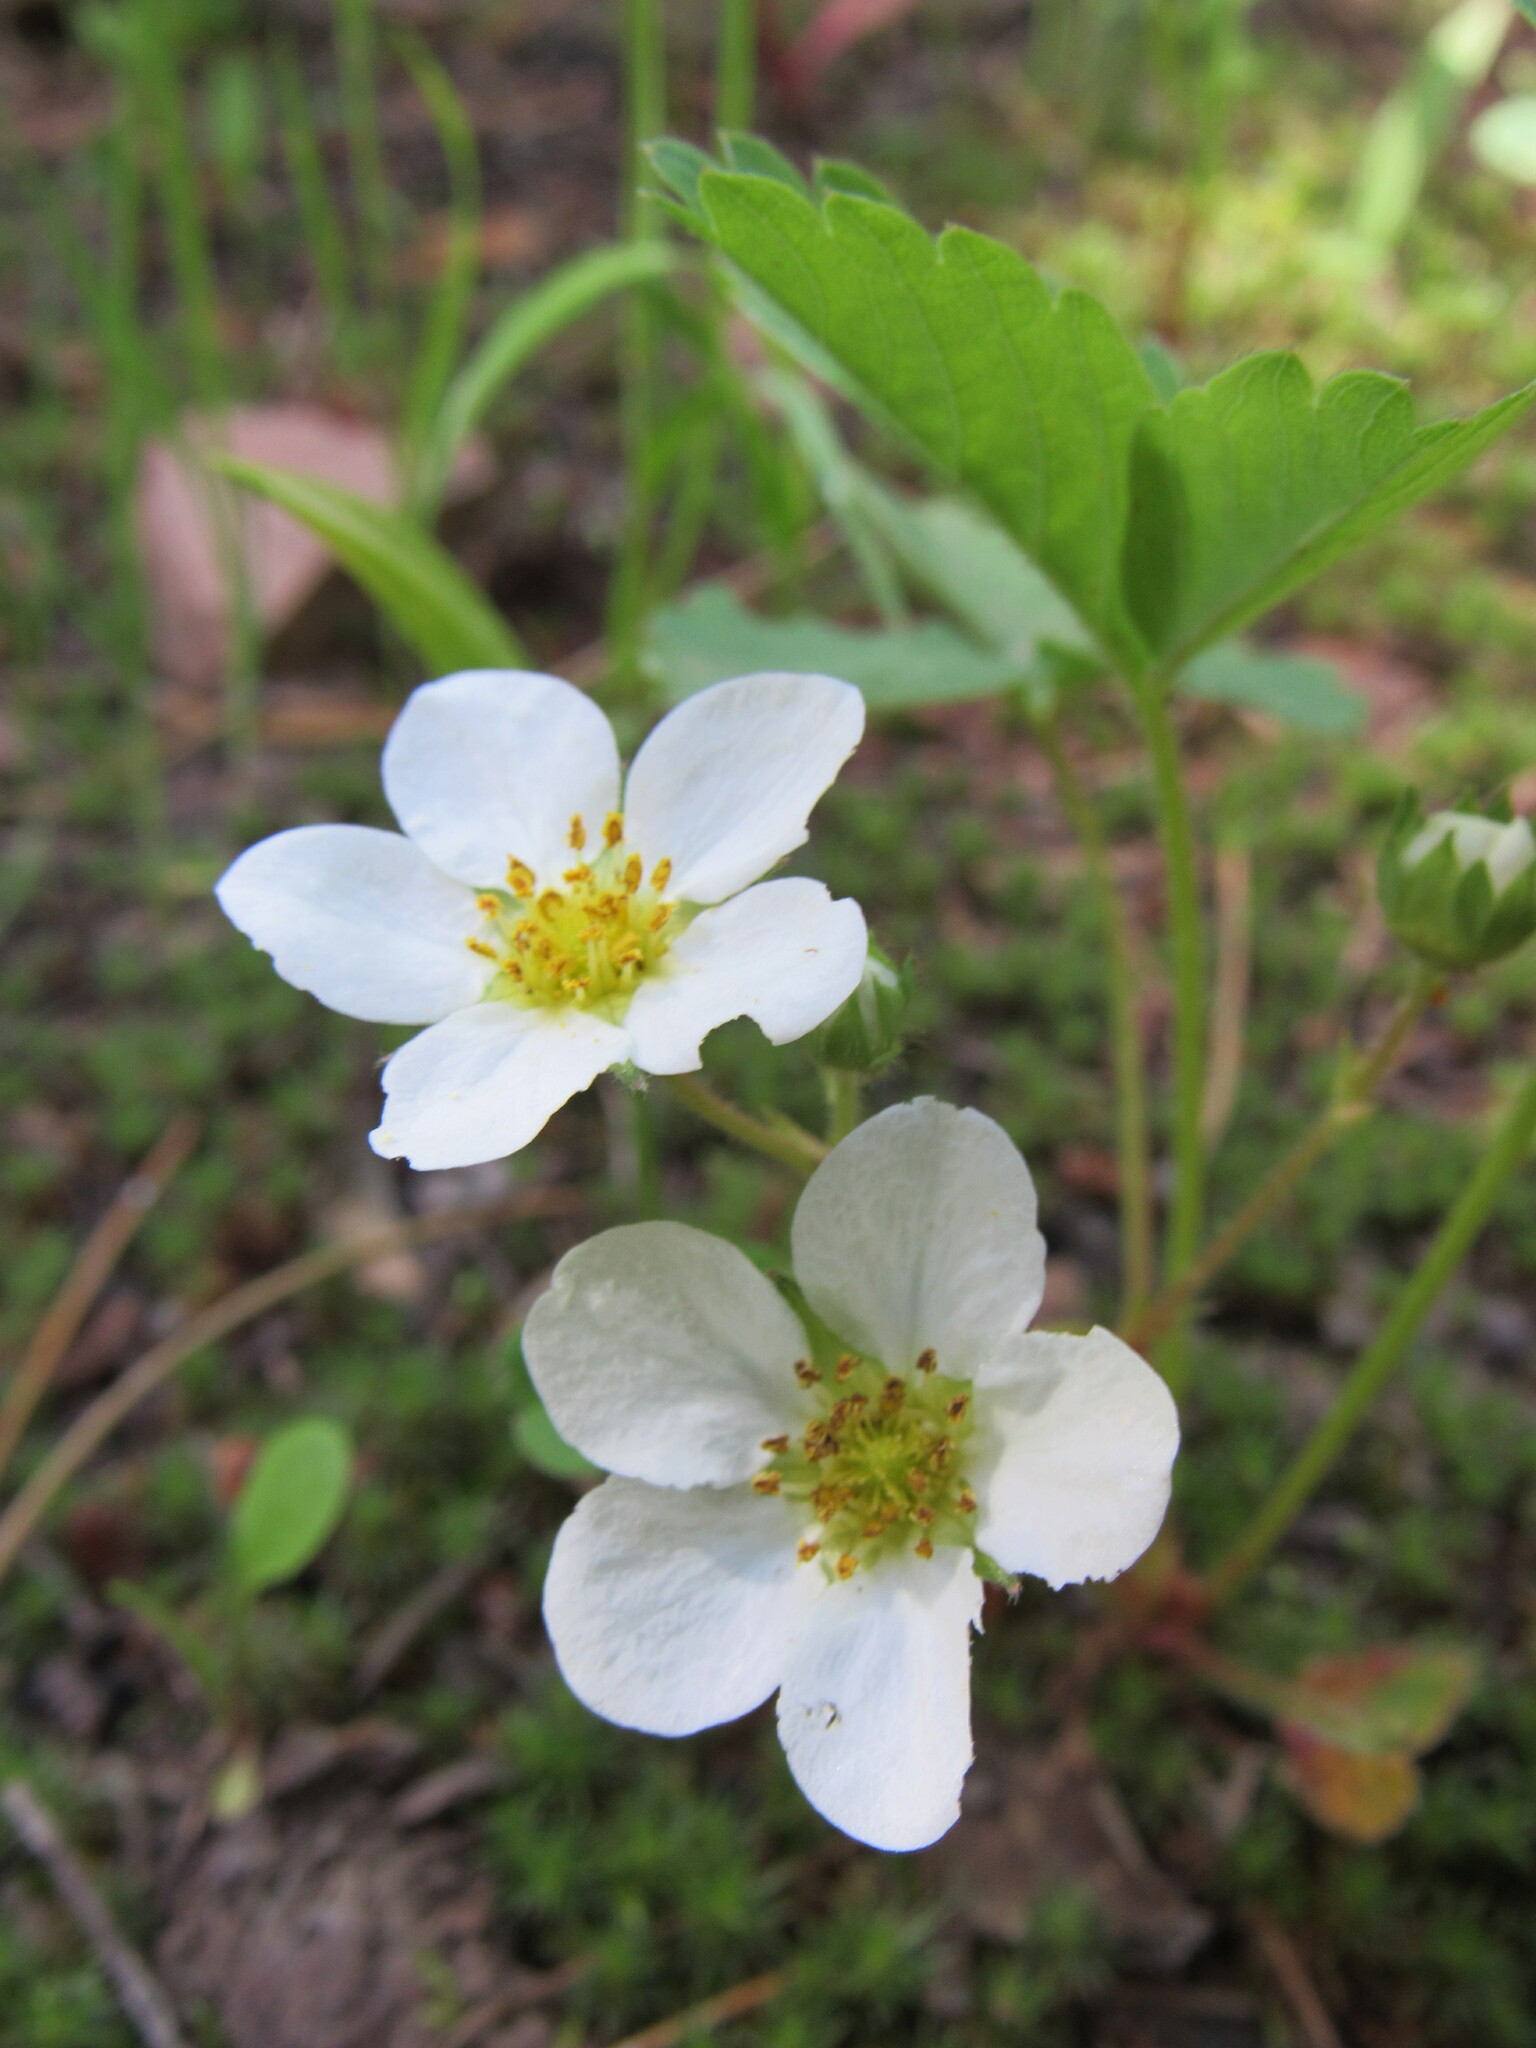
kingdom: Plantae
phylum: Tracheophyta
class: Magnoliopsida
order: Rosales
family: Rosaceae
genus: Fragaria
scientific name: Fragaria virginiana
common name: Thickleaved wild strawberry
